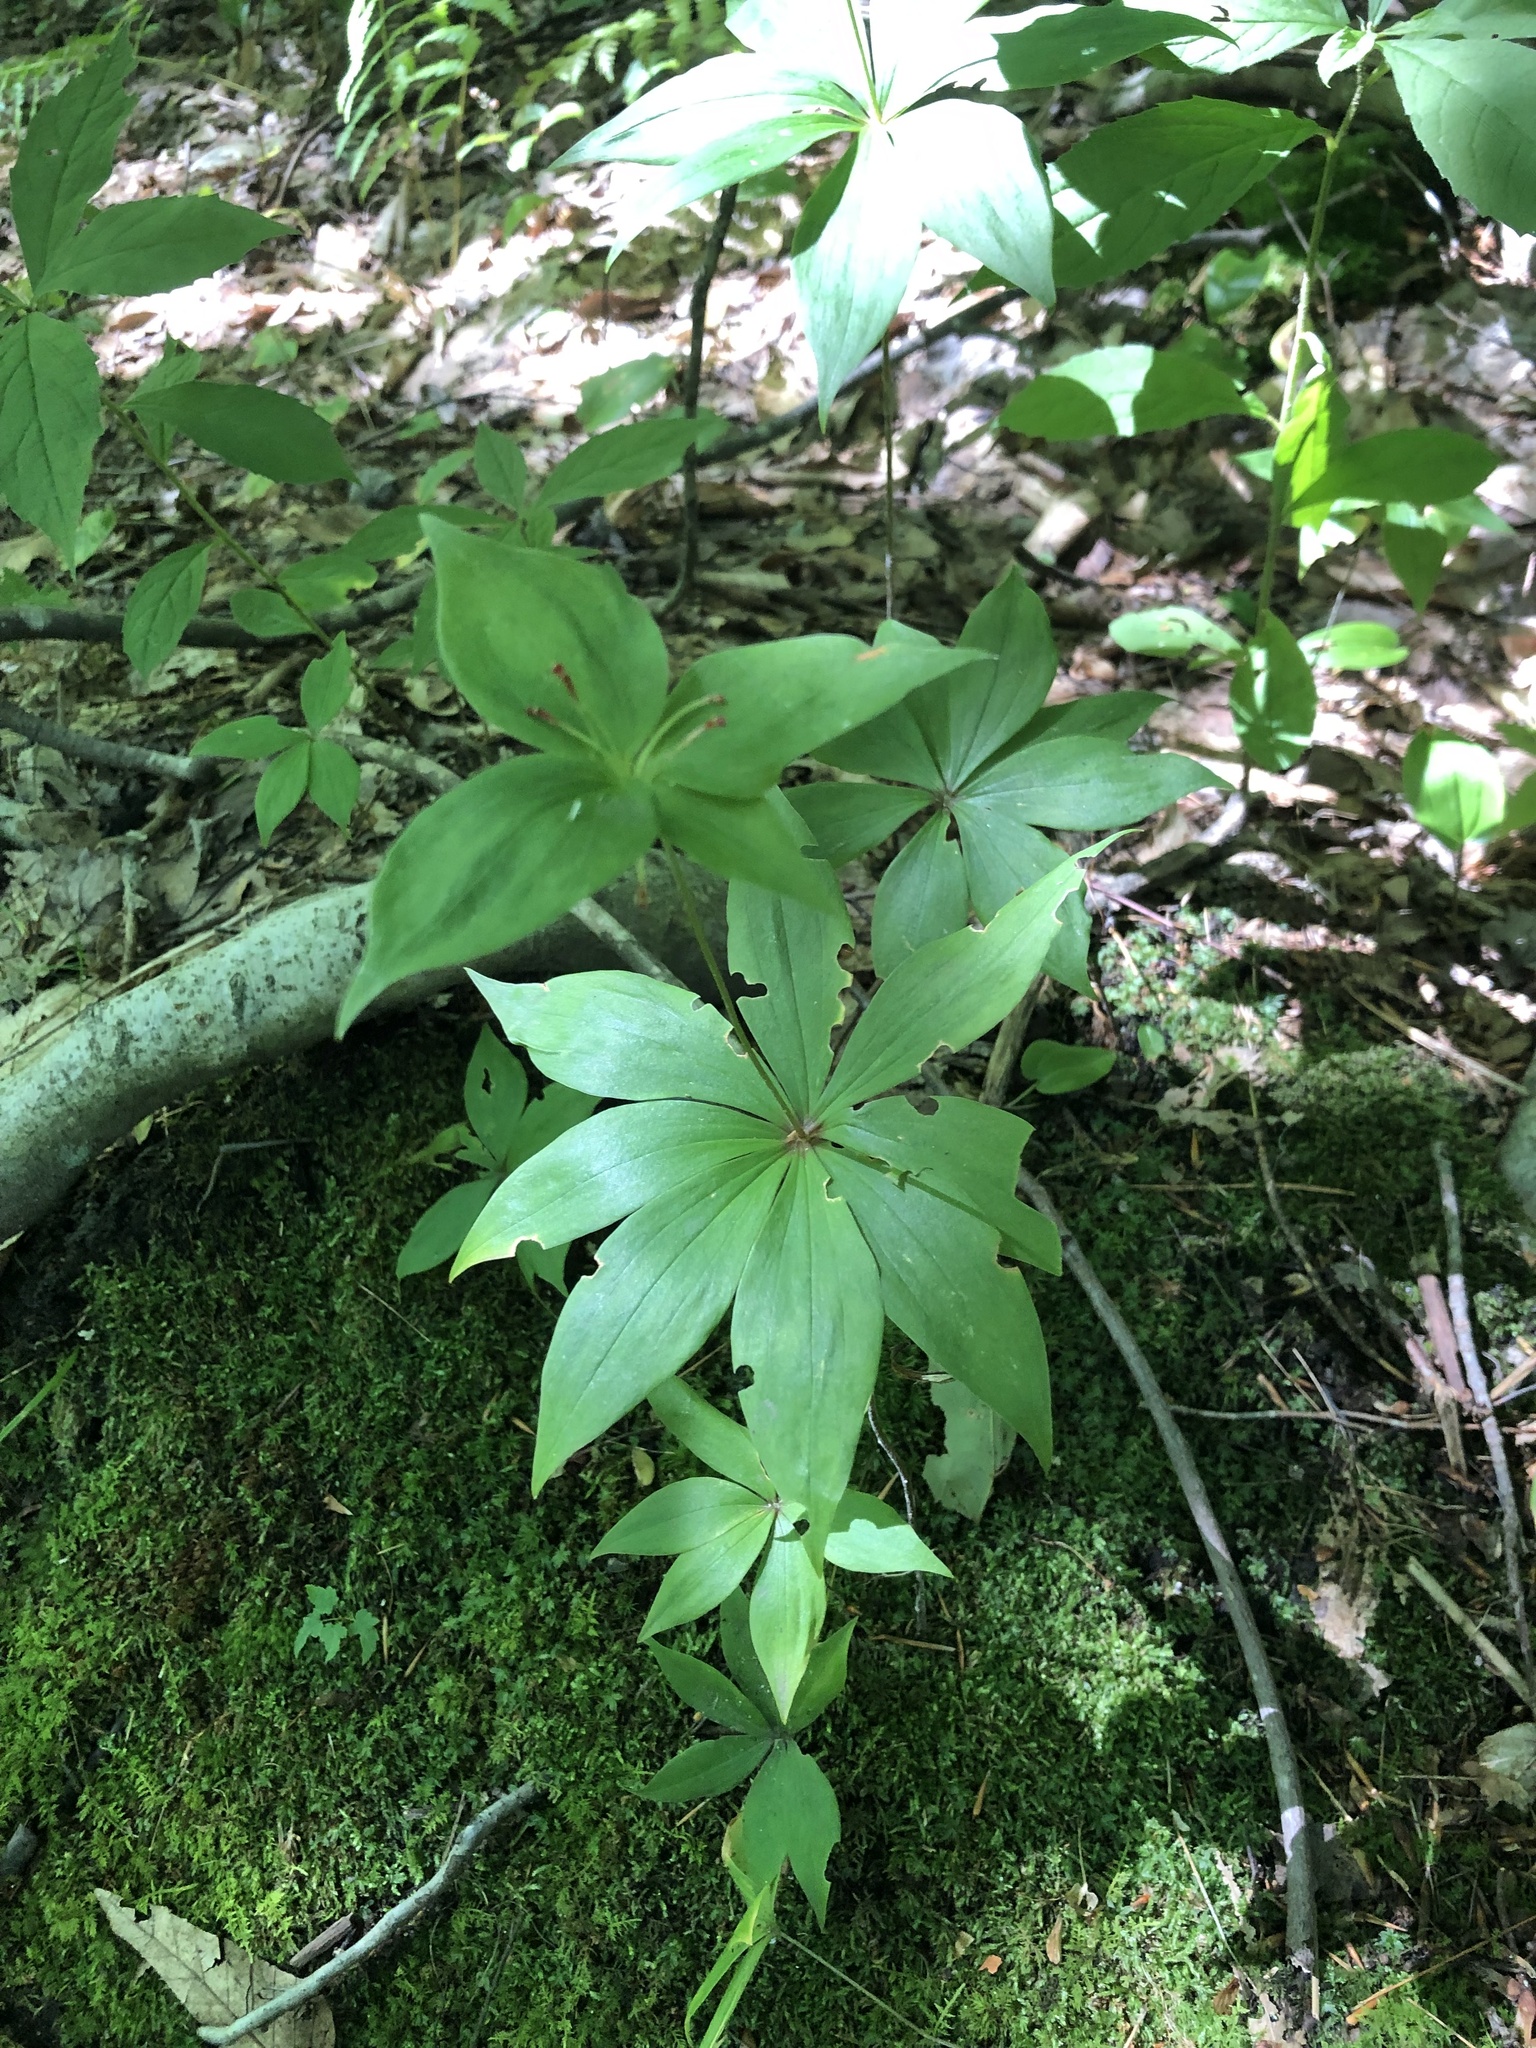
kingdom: Plantae
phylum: Tracheophyta
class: Liliopsida
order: Liliales
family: Liliaceae
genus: Medeola
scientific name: Medeola virginiana
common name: Indian cucumber-root
